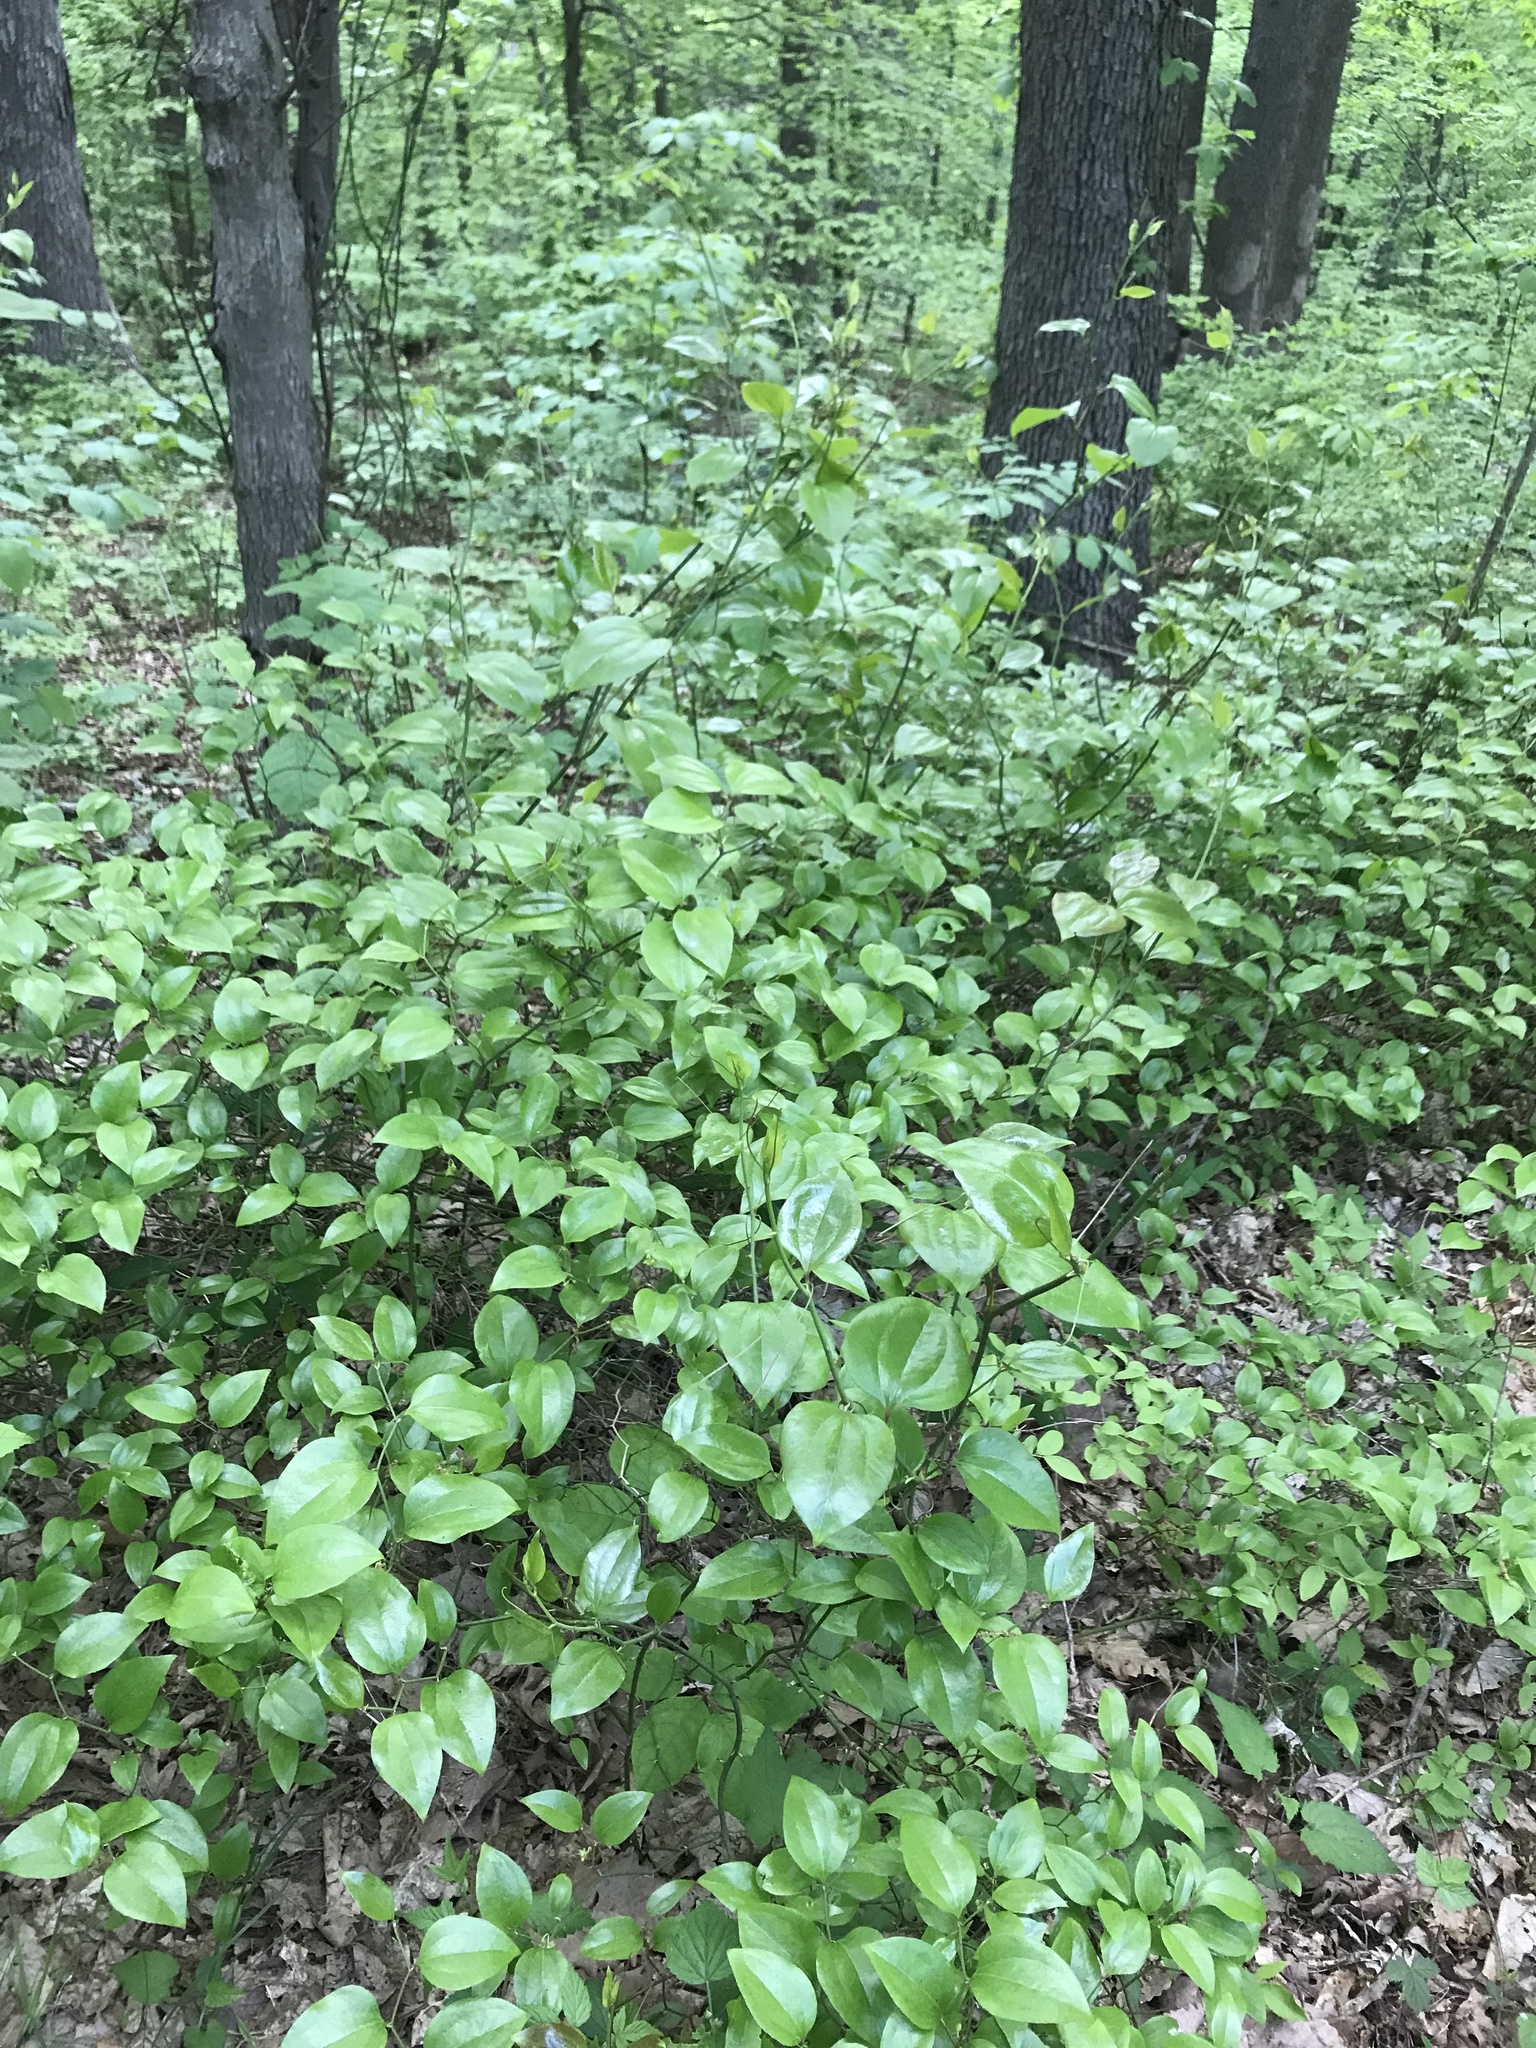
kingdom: Plantae
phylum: Tracheophyta
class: Liliopsida
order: Liliales
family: Smilacaceae
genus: Smilax
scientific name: Smilax rotundifolia
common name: Bullbriar
